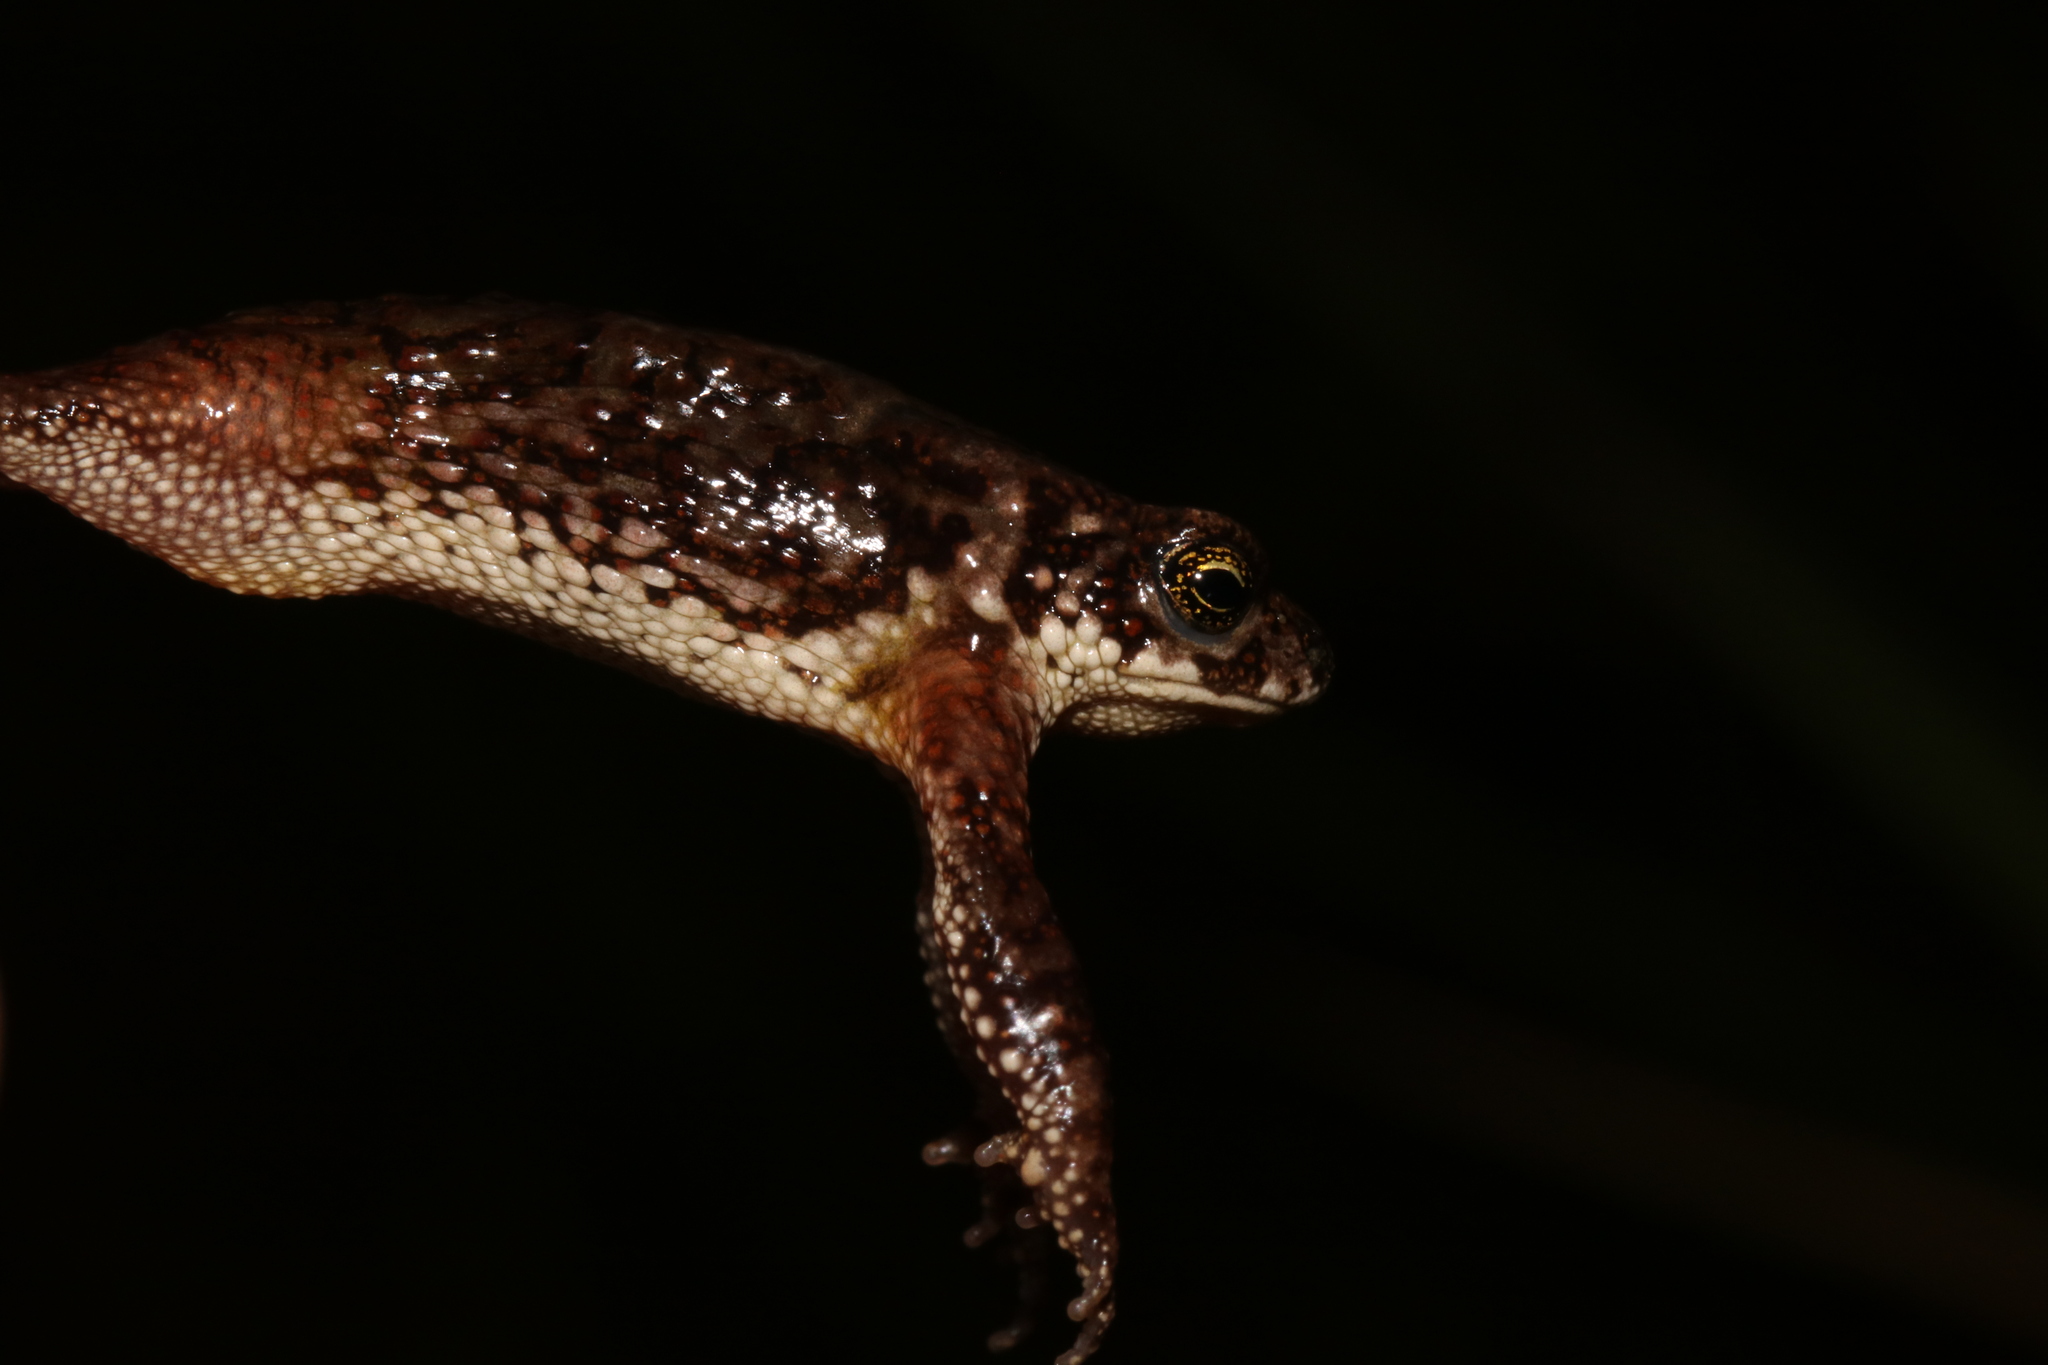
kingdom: Animalia
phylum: Chordata
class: Amphibia
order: Anura
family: Bufonidae
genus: Mertensophryne
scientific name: Mertensophryne uzunguensis
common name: Uzungwe toad
